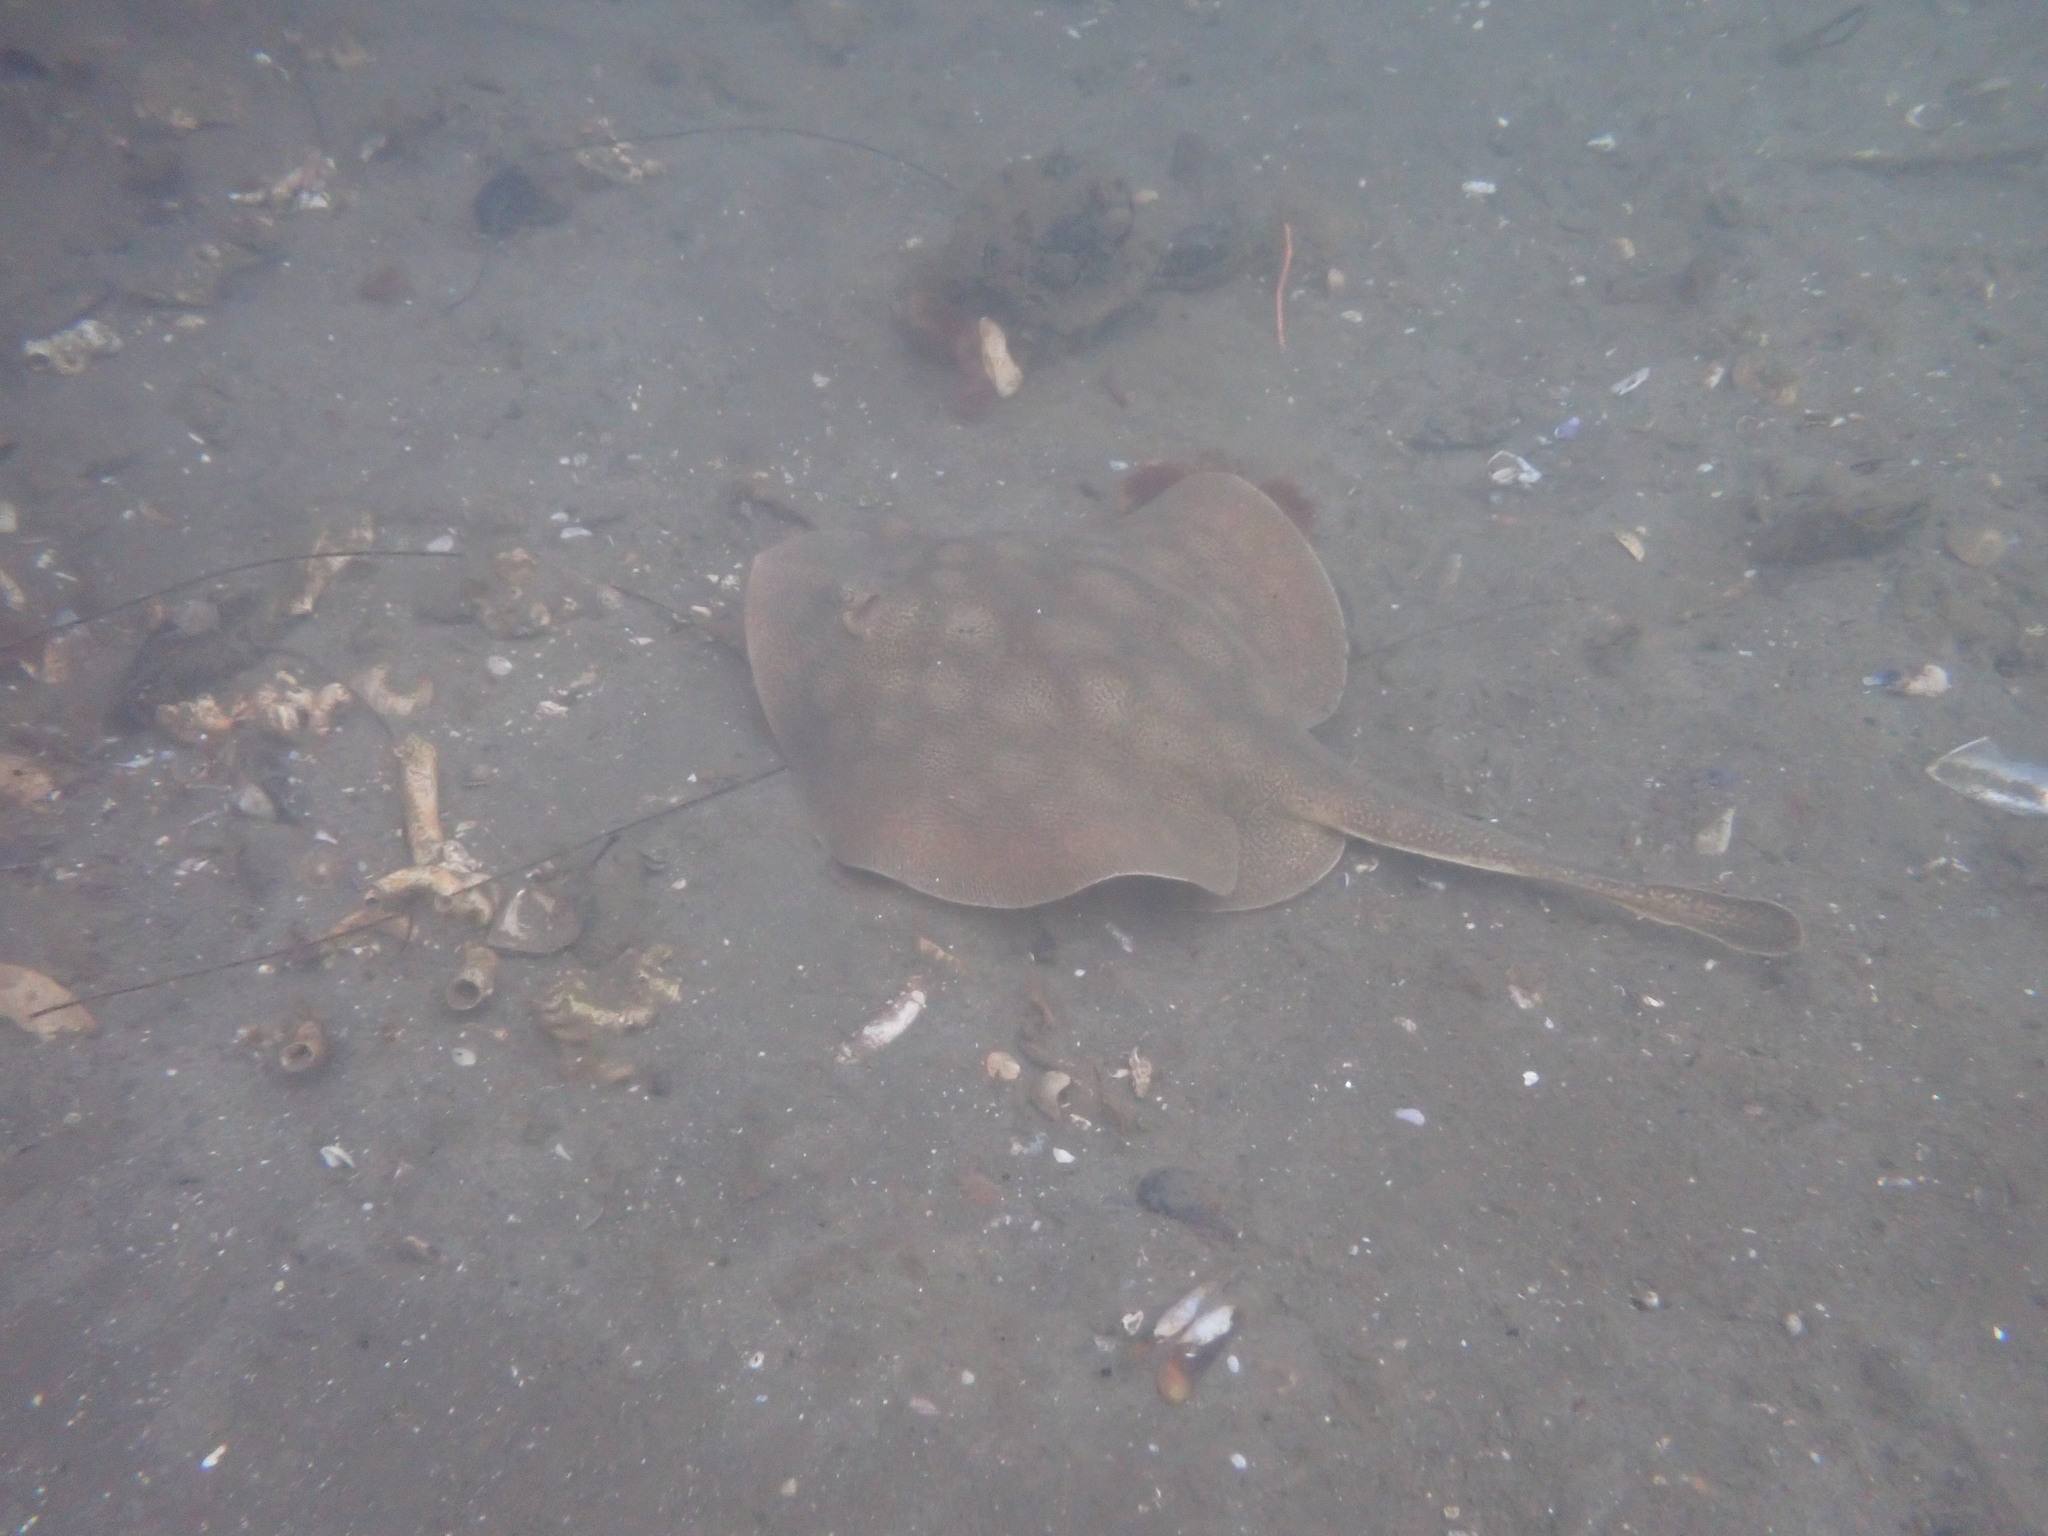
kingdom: Animalia
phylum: Chordata
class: Elasmobranchii
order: Myliobatiformes
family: Urolophidae
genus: Urolophus
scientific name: Urolophus halleri
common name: Round stingray
